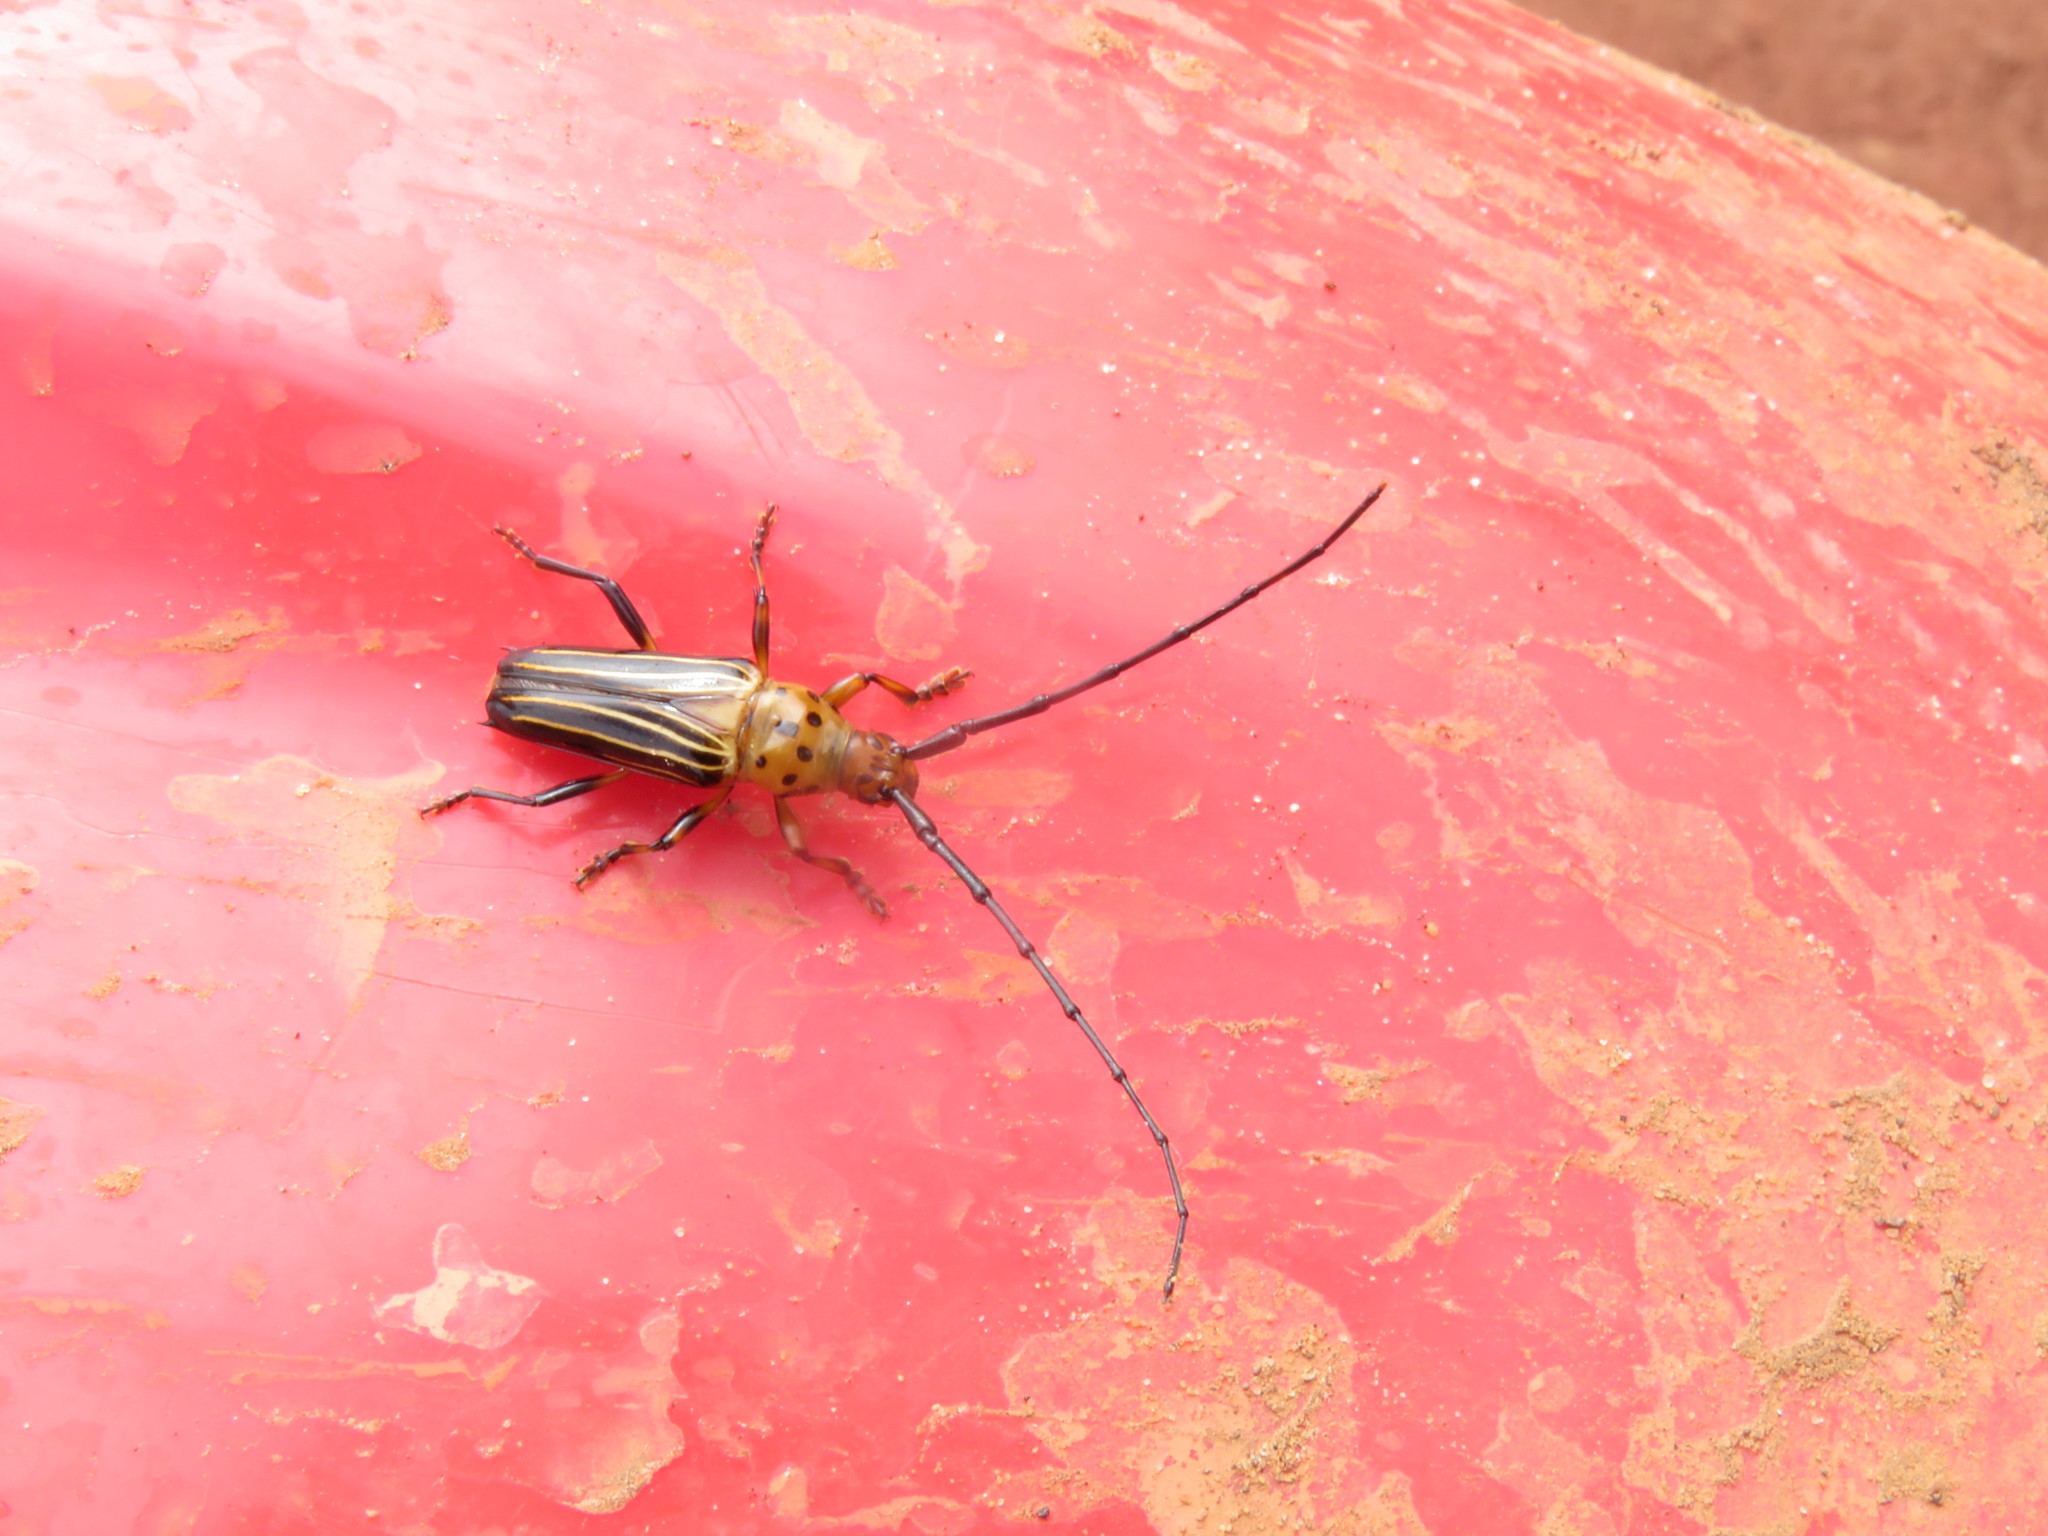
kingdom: Animalia
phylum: Arthropoda
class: Insecta
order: Coleoptera
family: Cerambycidae
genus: Oxymerus
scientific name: Oxymerus aculeatus
